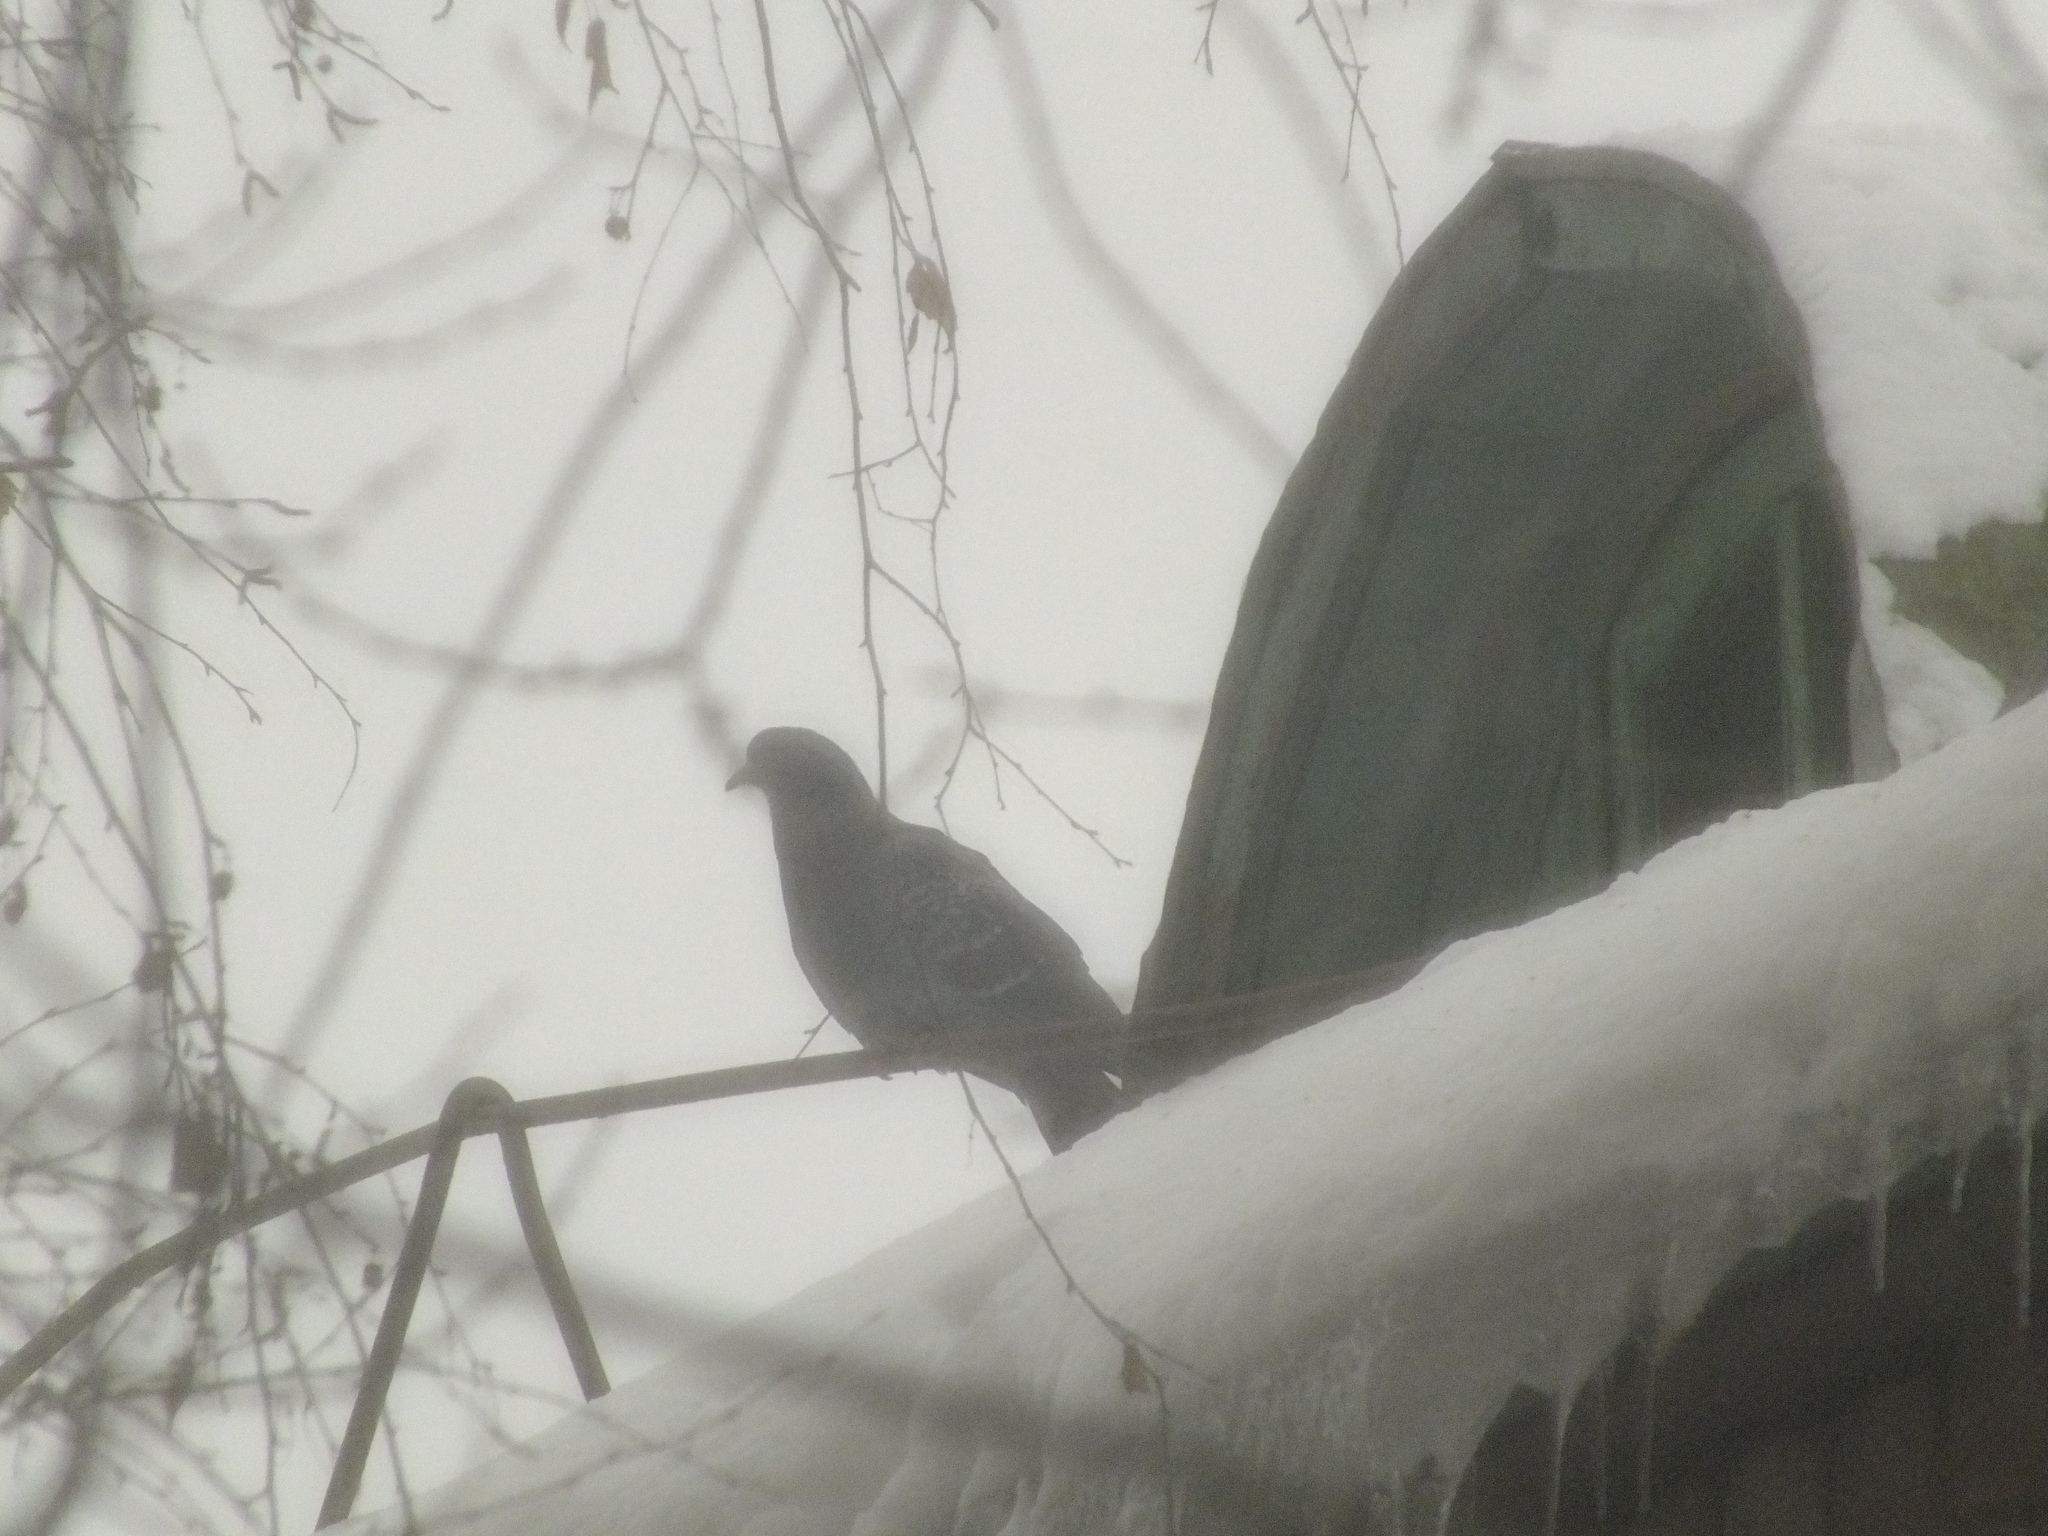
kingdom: Animalia
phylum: Chordata
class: Aves
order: Columbiformes
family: Columbidae
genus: Columba
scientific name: Columba livia
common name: Rock pigeon
